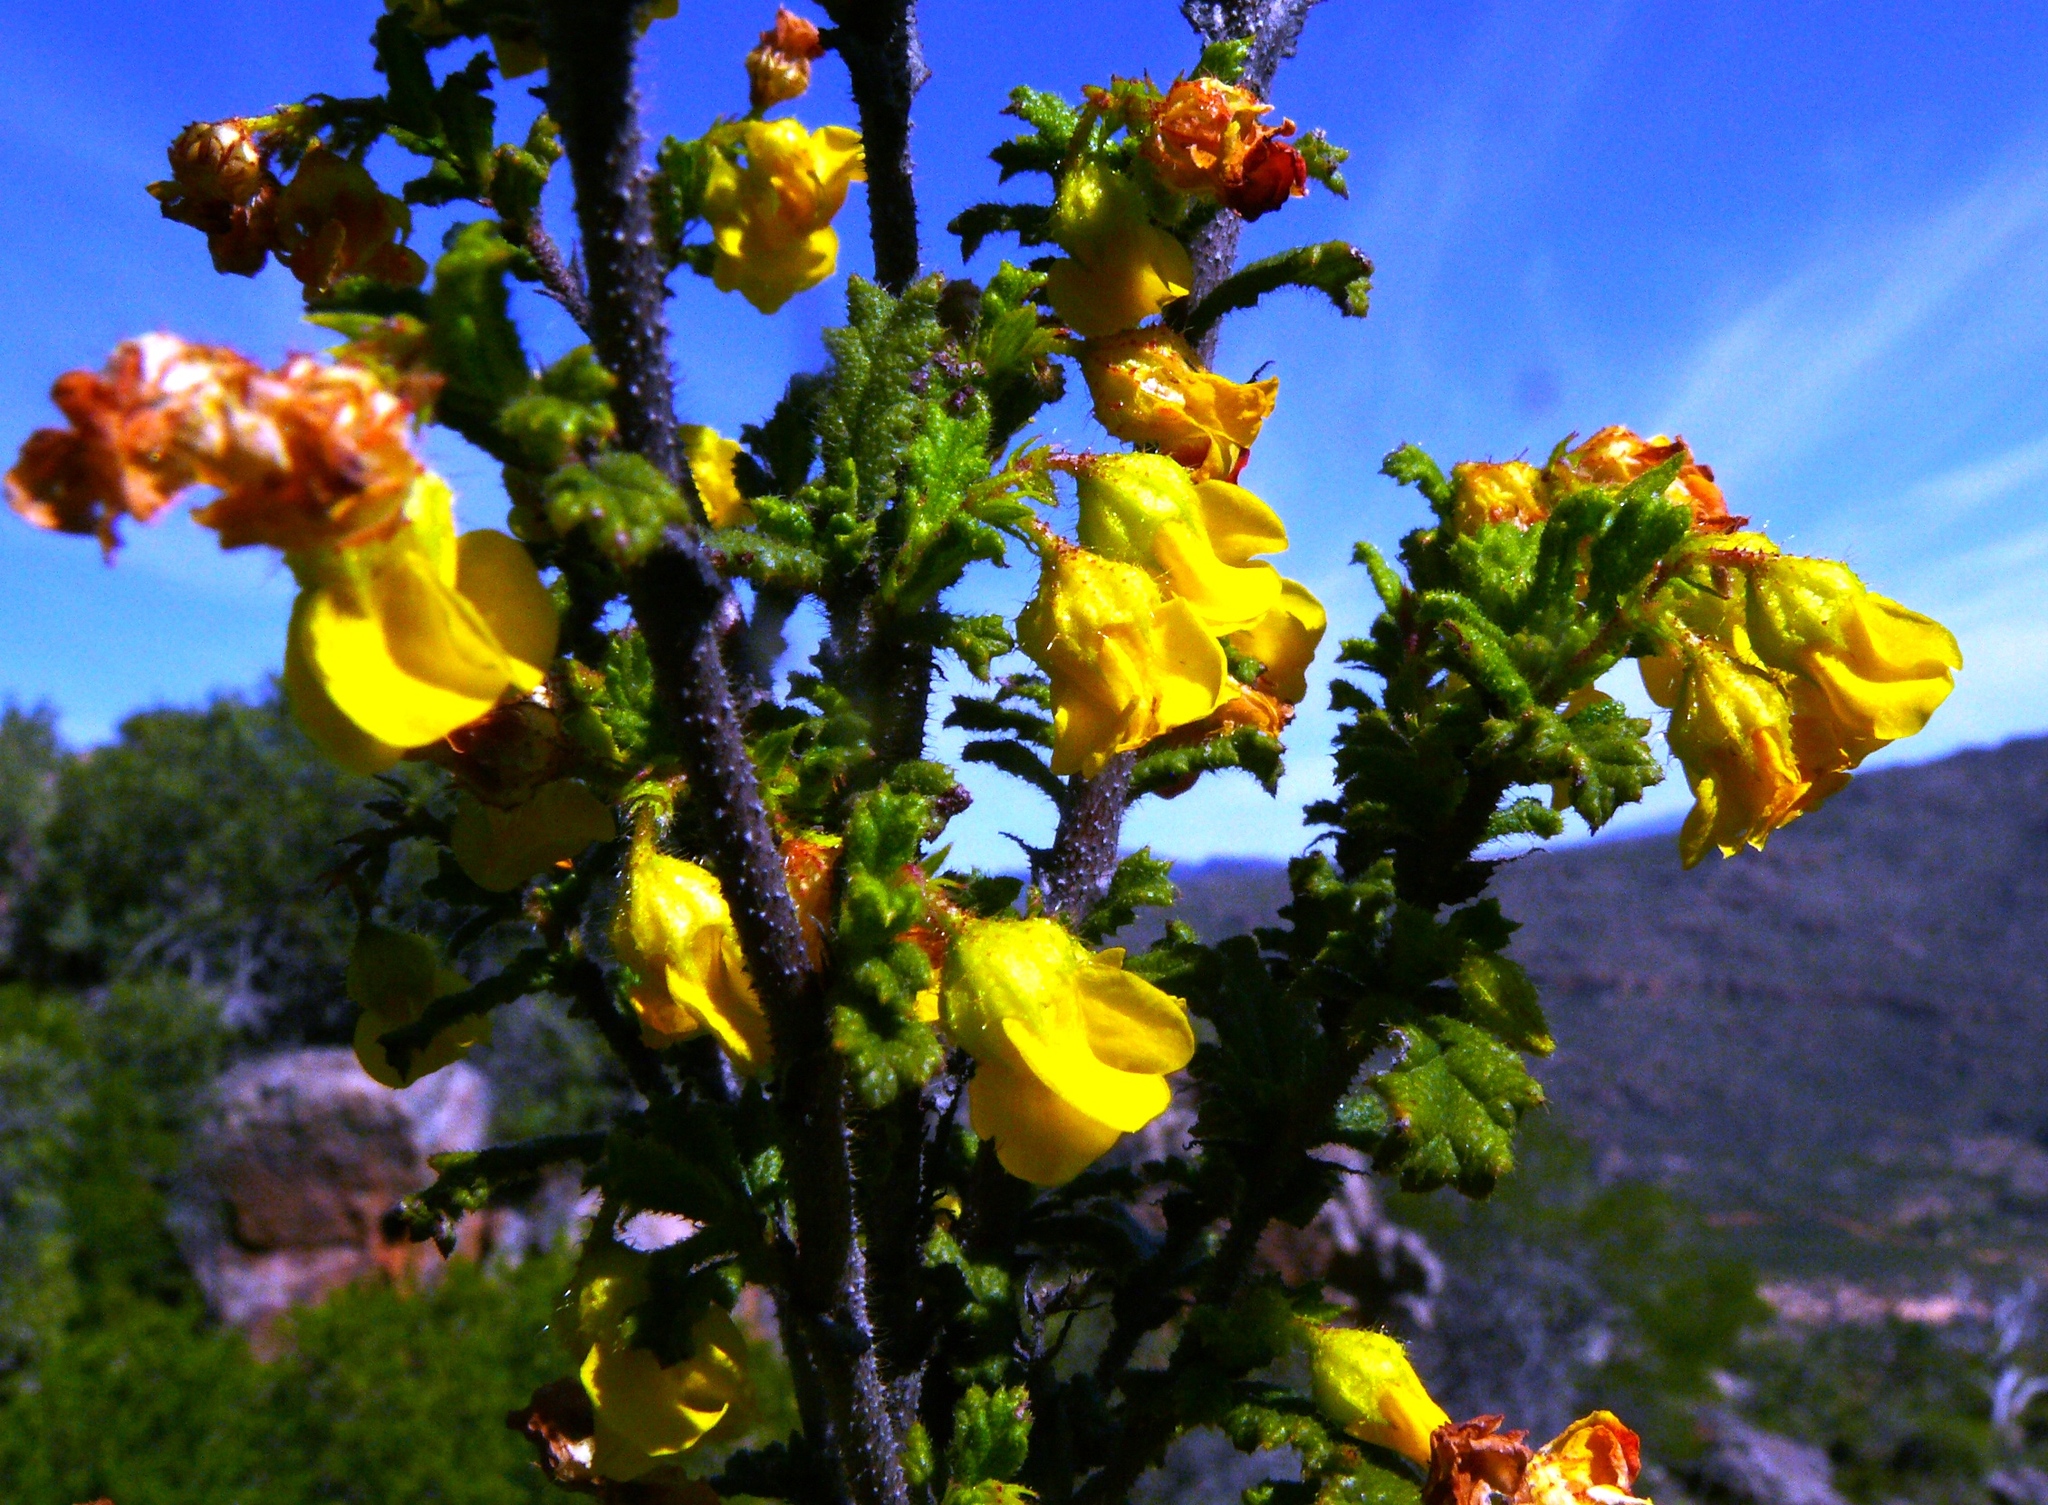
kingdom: Plantae
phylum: Tracheophyta
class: Magnoliopsida
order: Malvales
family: Malvaceae
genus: Hermannia
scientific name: Hermannia scabra
